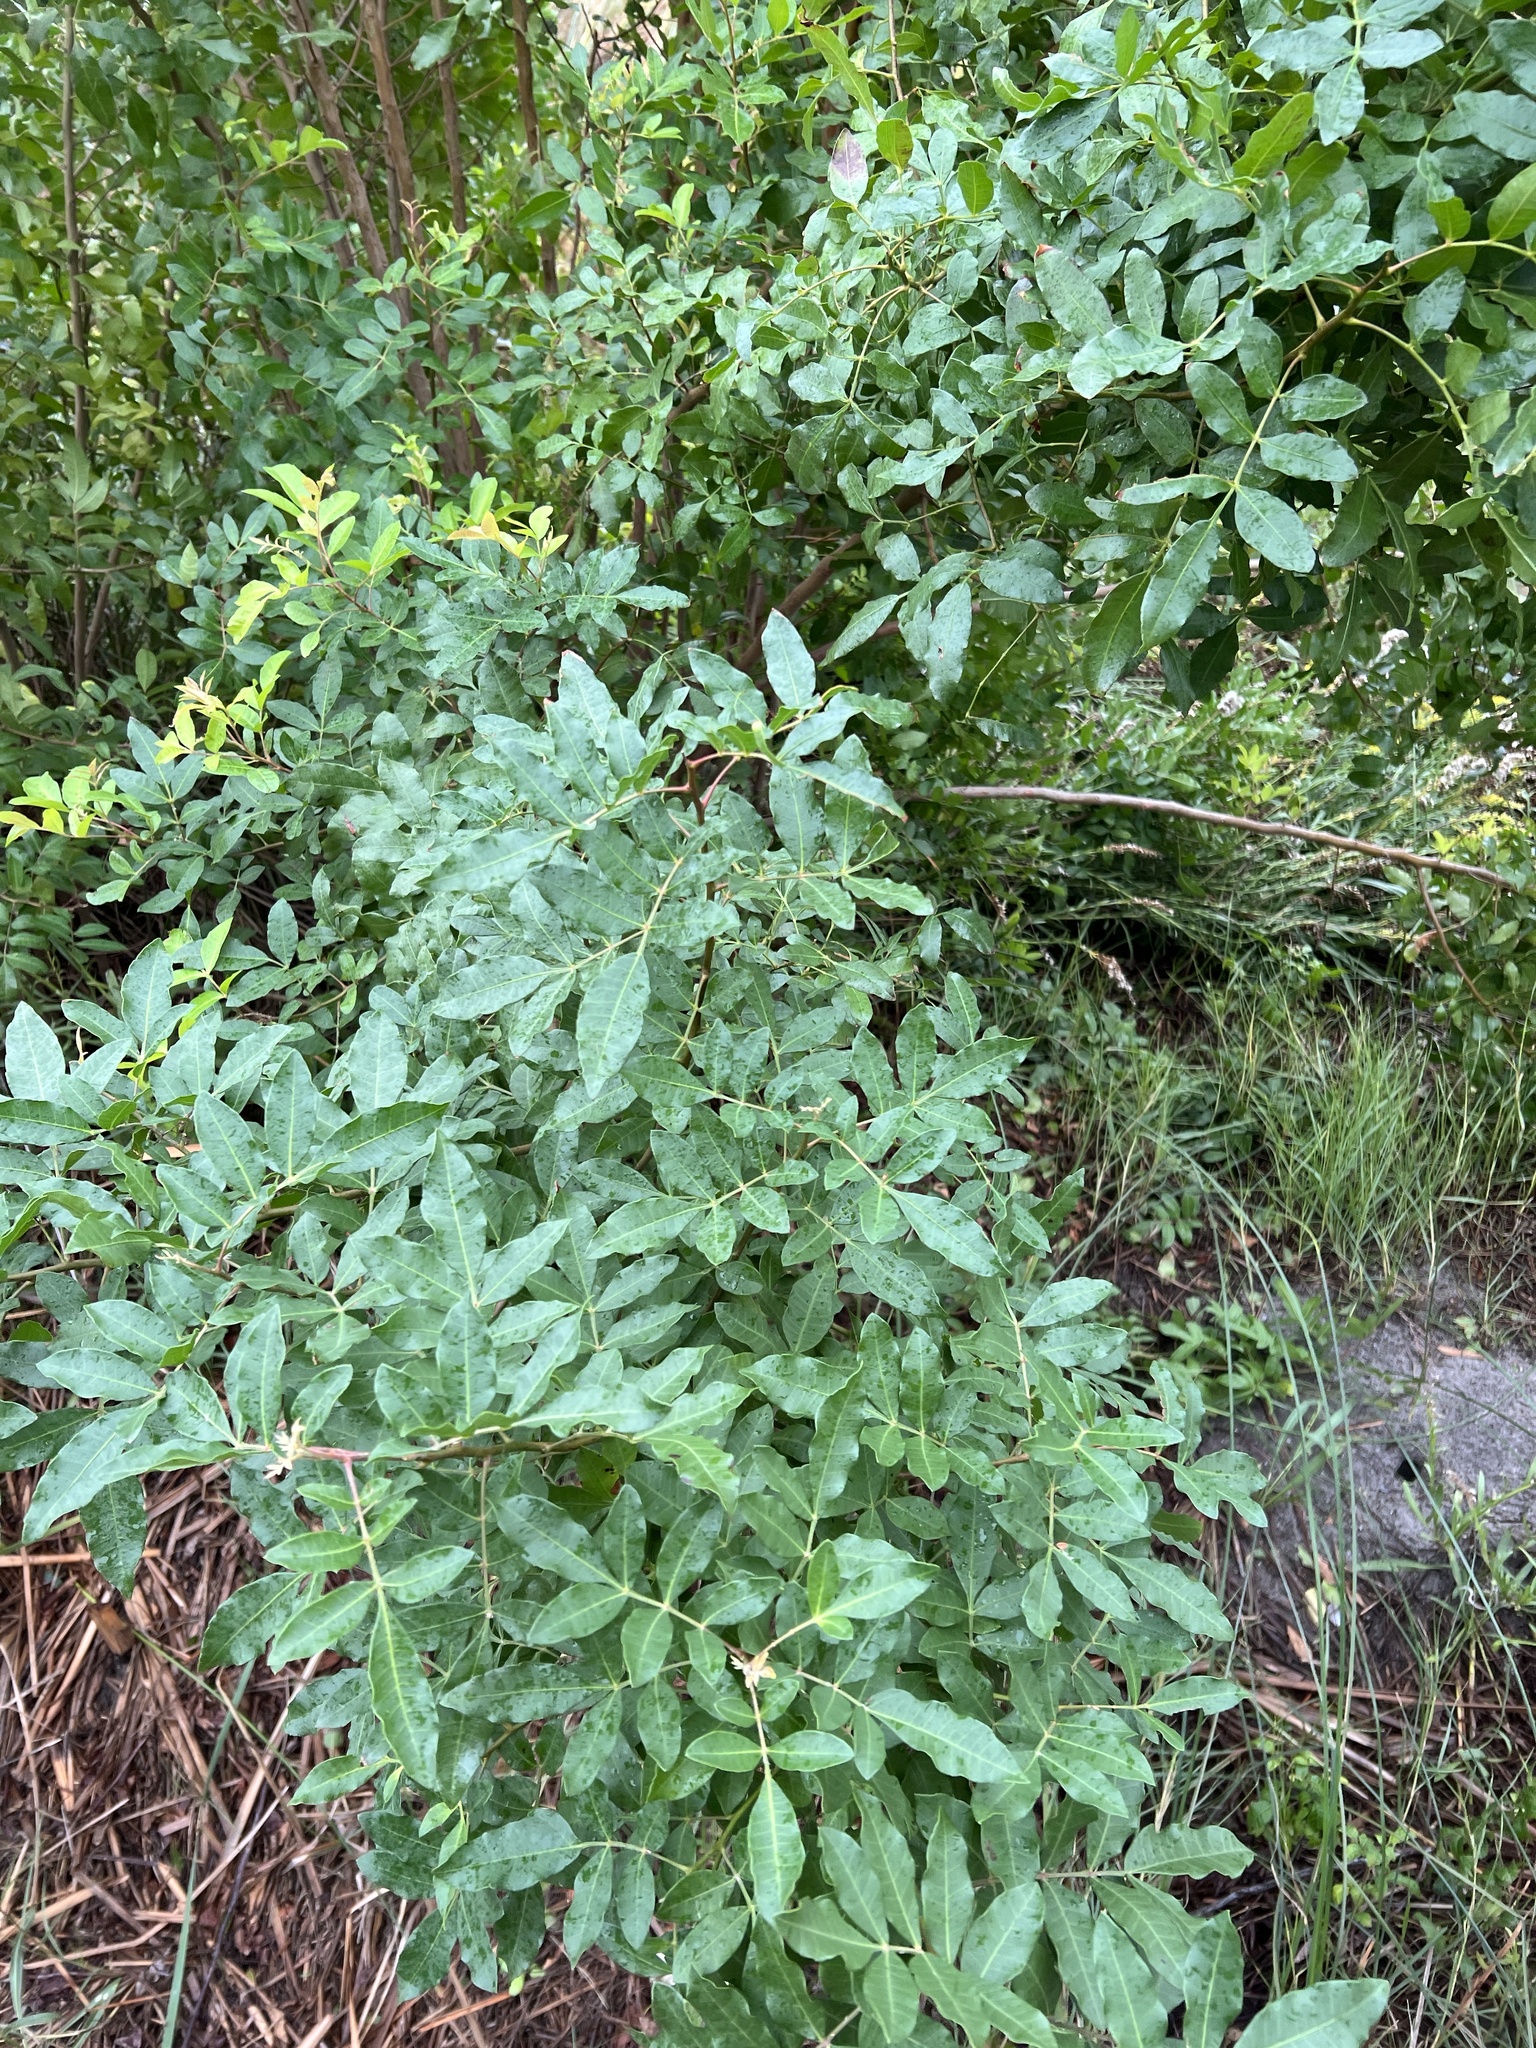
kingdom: Plantae
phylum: Tracheophyta
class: Magnoliopsida
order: Sapindales
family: Anacardiaceae
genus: Schinus
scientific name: Schinus terebinthifolia
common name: Brazilian peppertree
